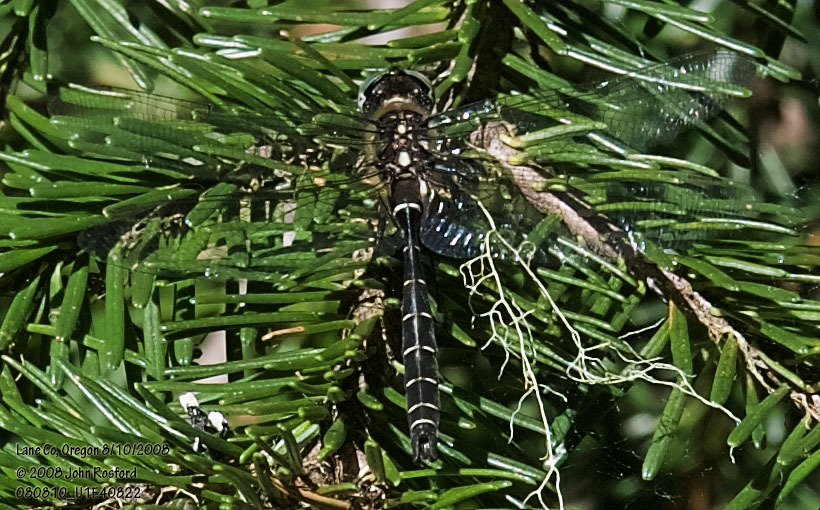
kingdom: Animalia
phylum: Arthropoda
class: Insecta
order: Odonata
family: Corduliidae
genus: Somatochlora
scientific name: Somatochlora albicincta
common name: Ringed emerald
